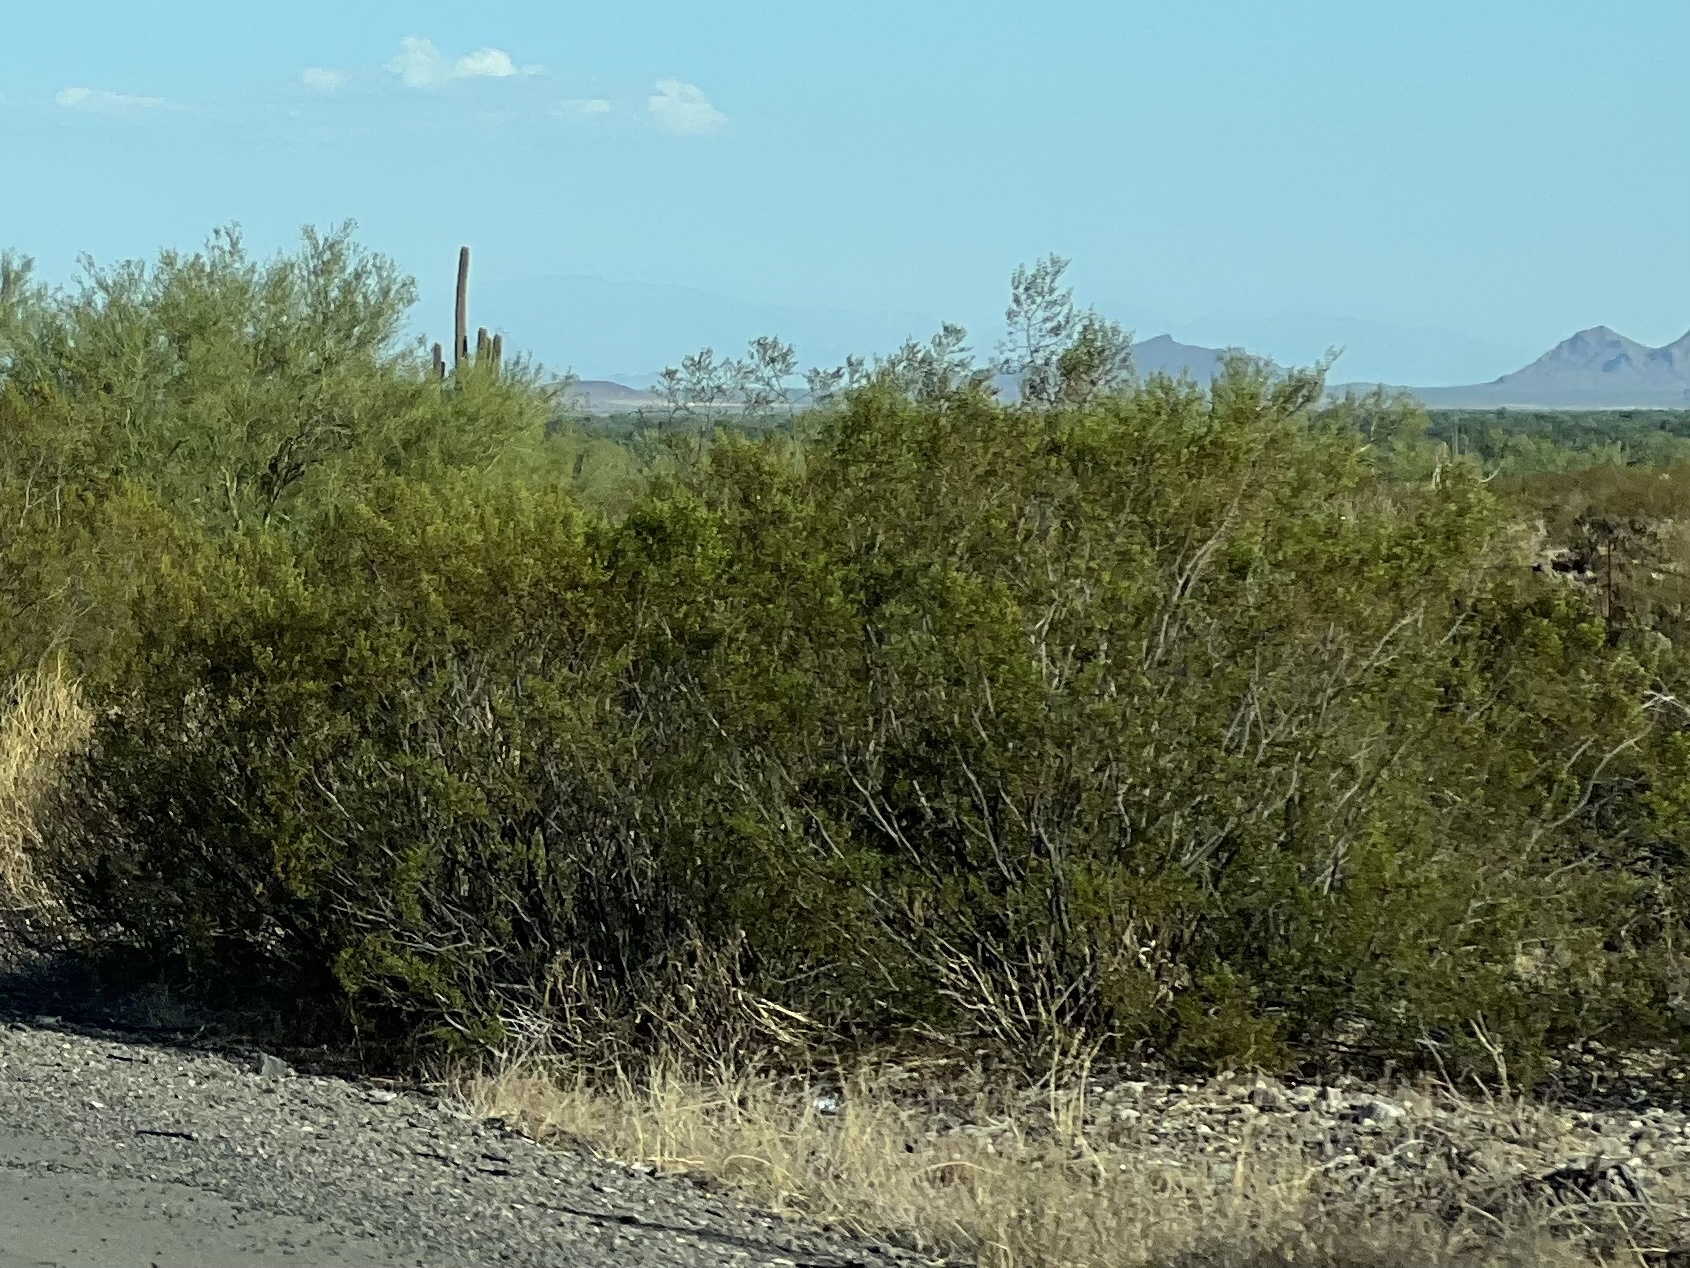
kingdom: Plantae
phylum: Tracheophyta
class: Magnoliopsida
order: Zygophyllales
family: Zygophyllaceae
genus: Larrea
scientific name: Larrea tridentata
